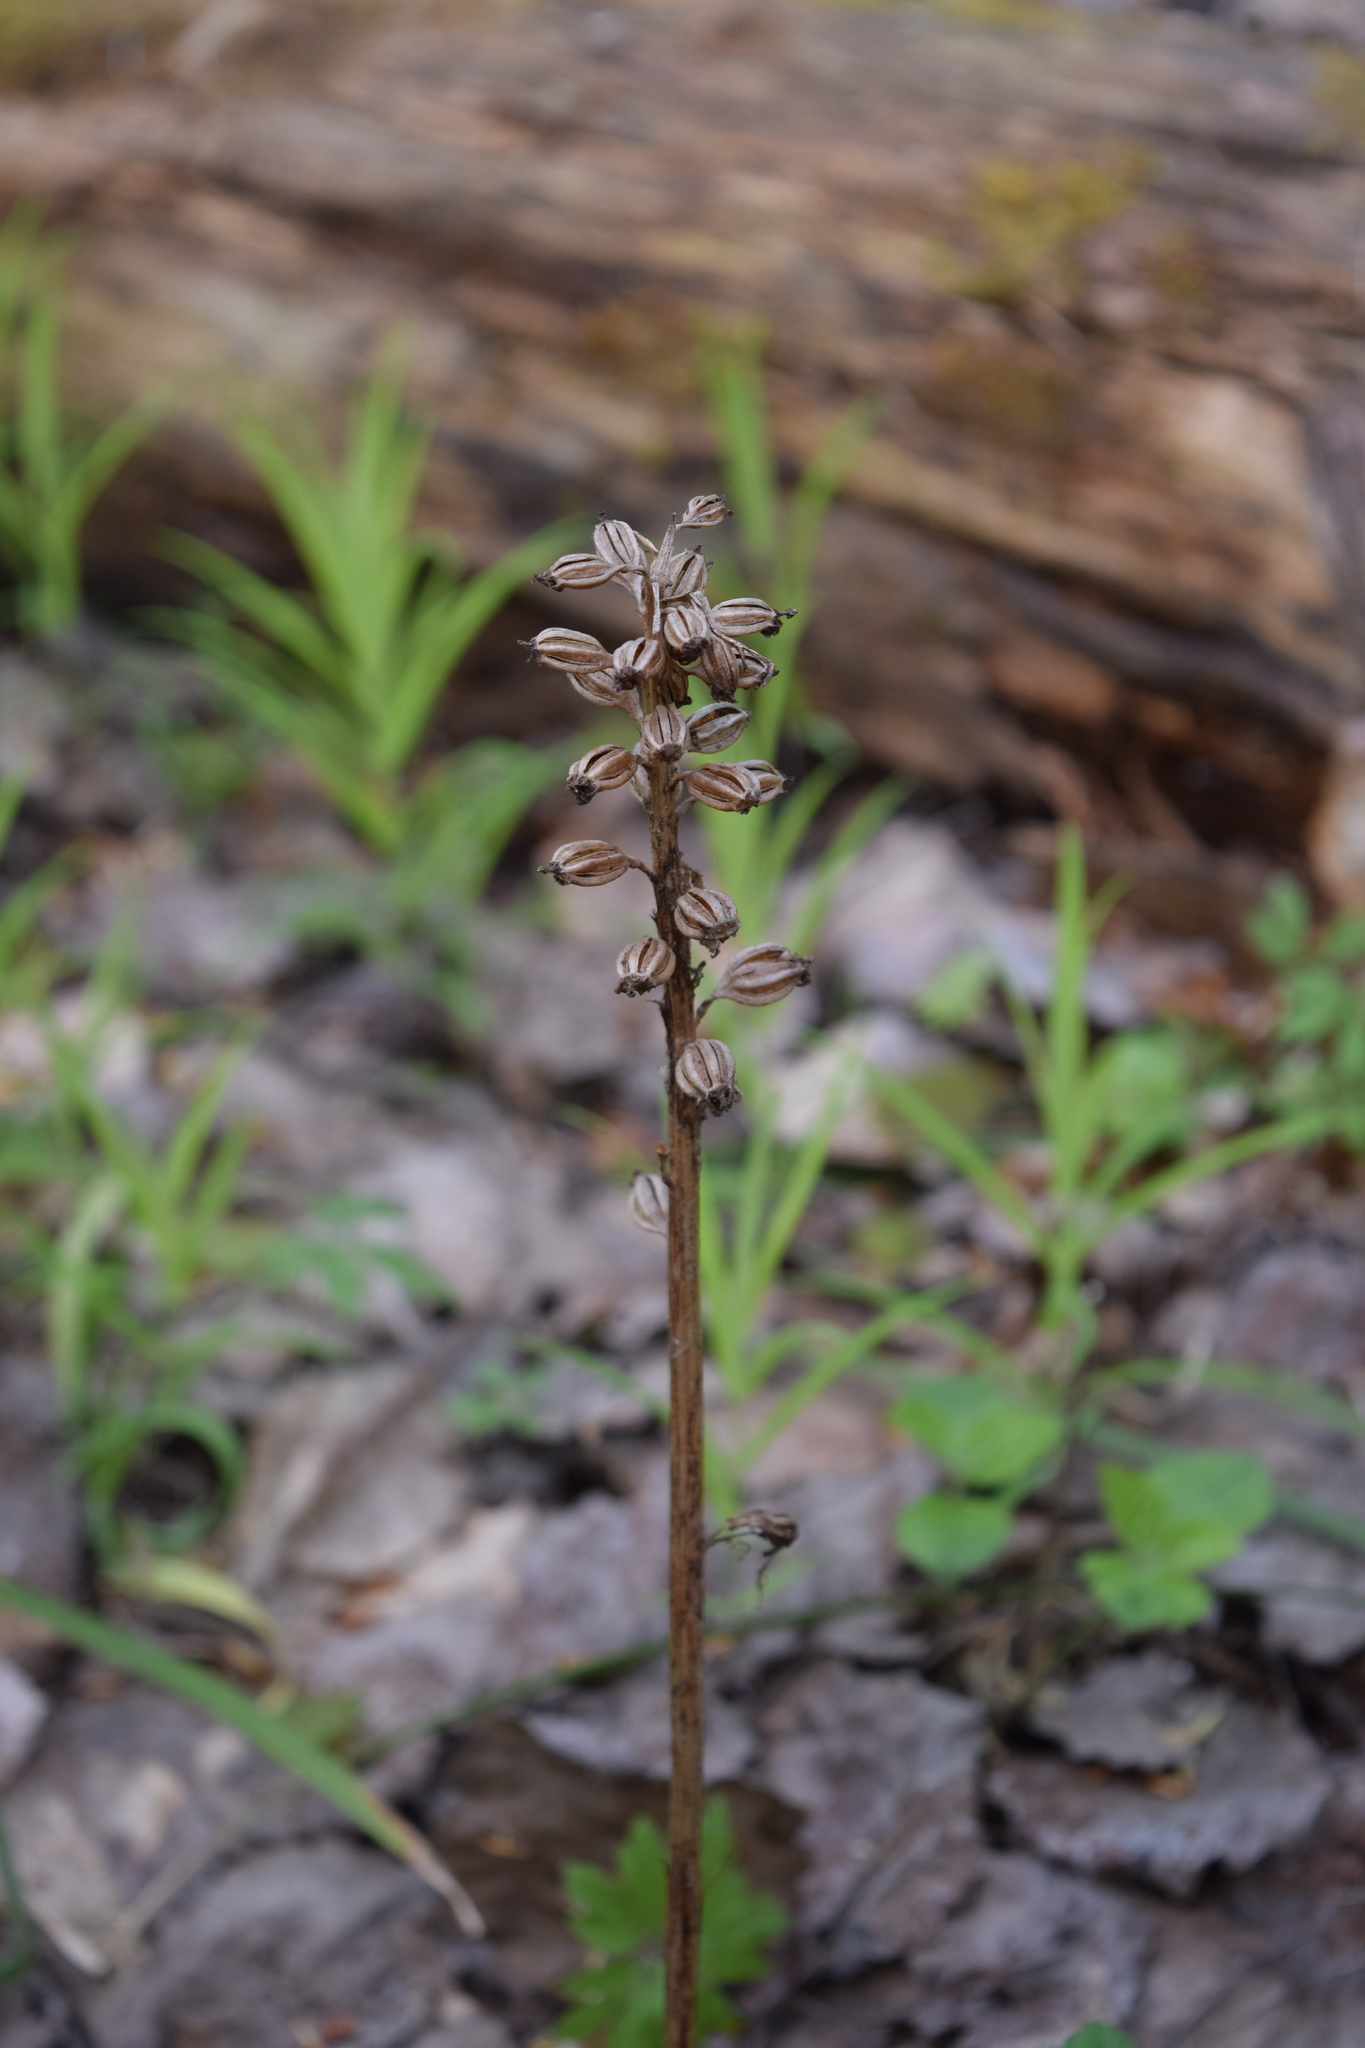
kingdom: Plantae
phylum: Tracheophyta
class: Liliopsida
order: Asparagales
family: Orchidaceae
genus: Neottia
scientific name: Neottia nidus-avis
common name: Bird's-nest orchid
